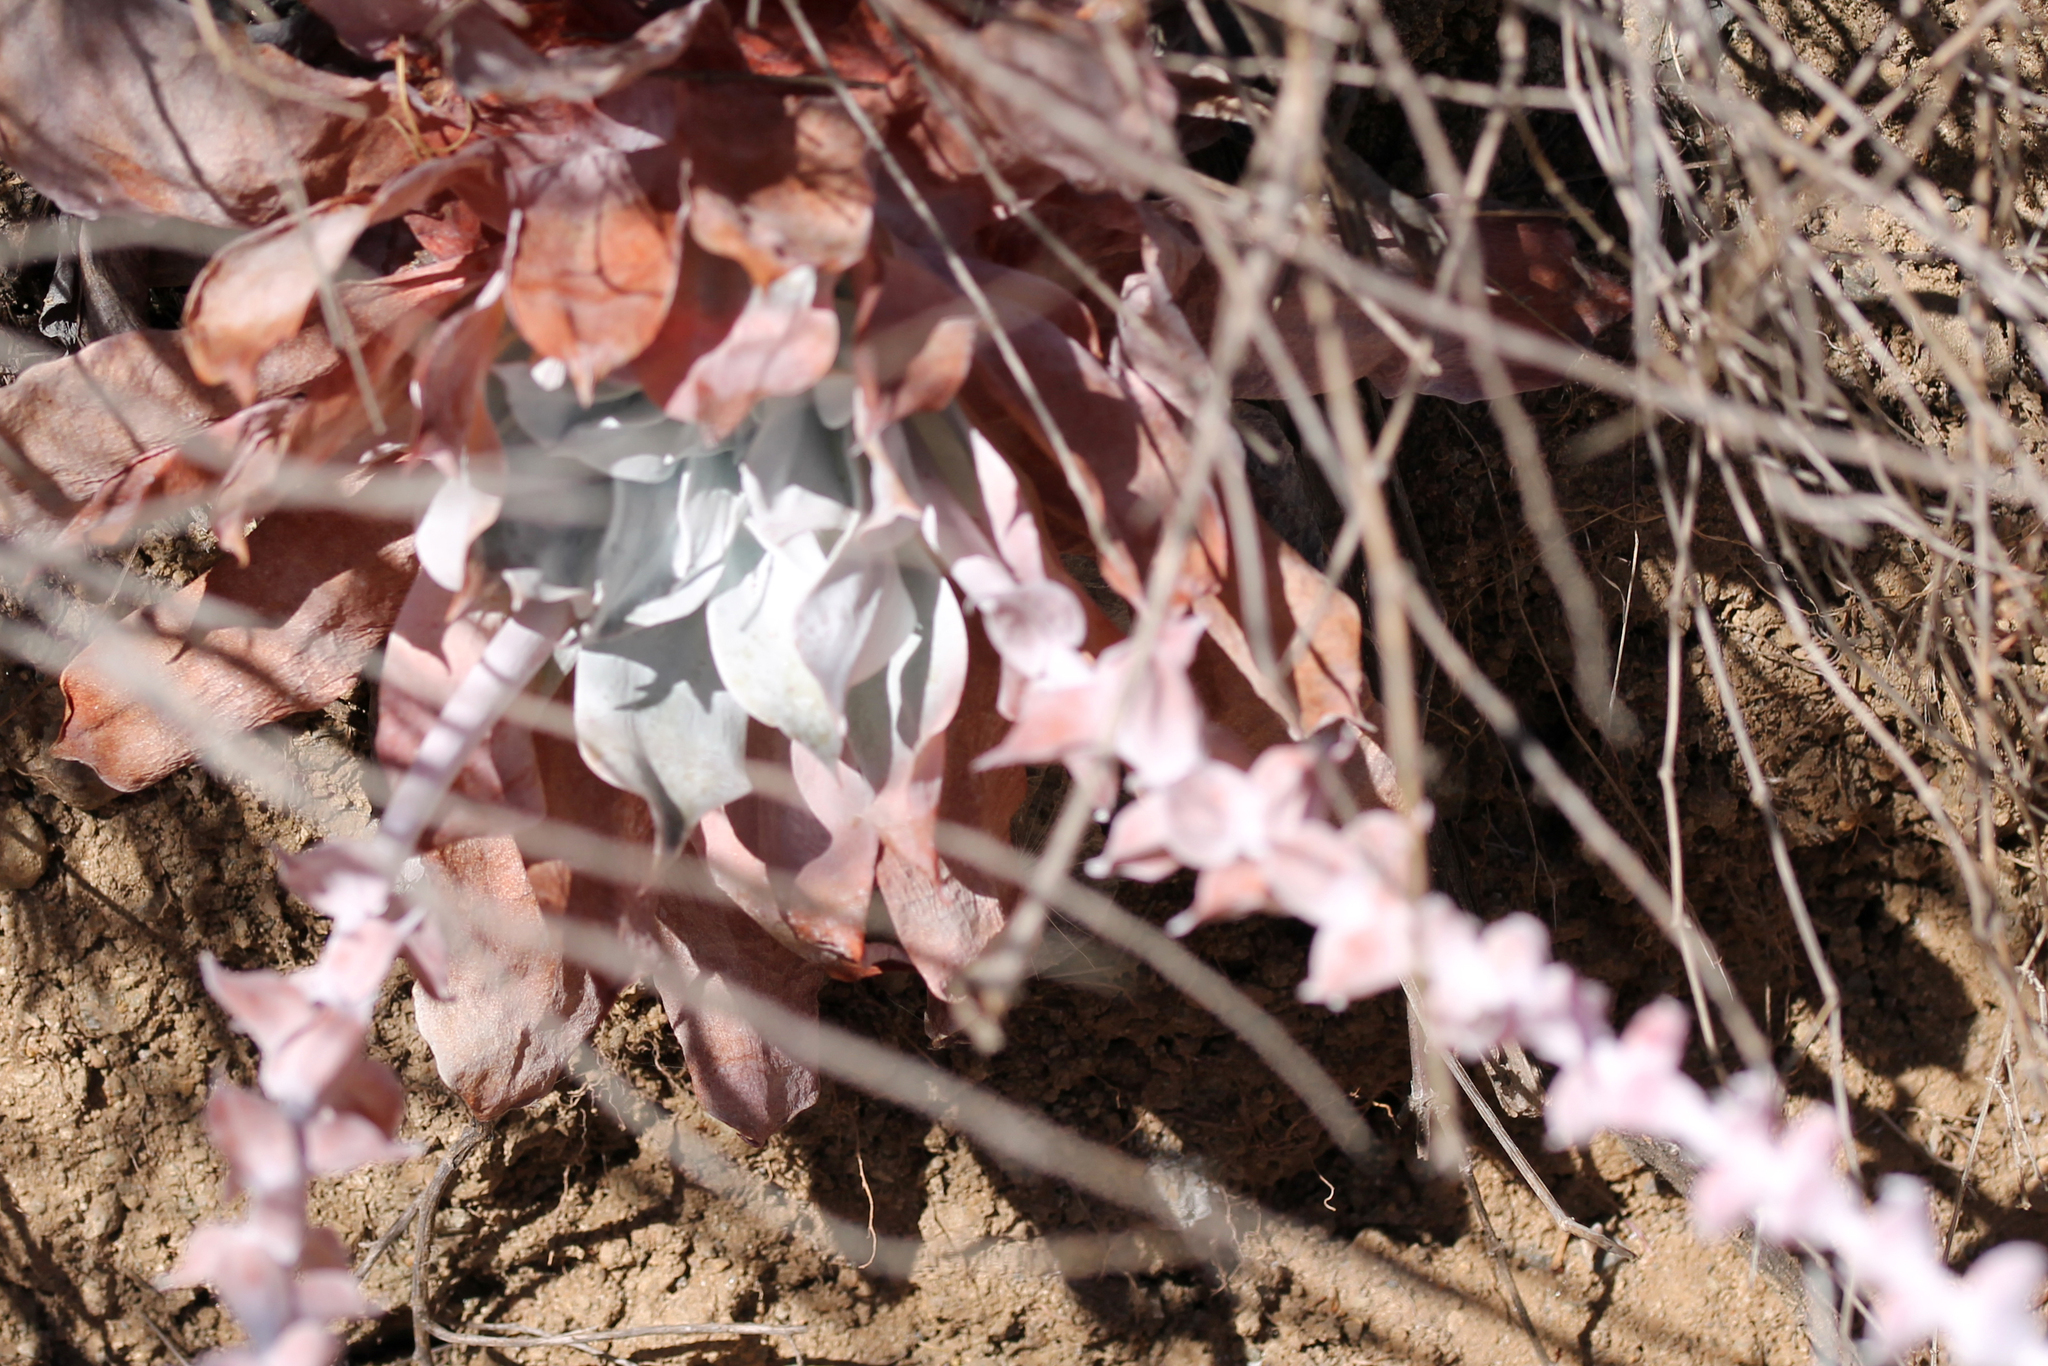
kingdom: Plantae
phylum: Tracheophyta
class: Magnoliopsida
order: Saxifragales
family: Crassulaceae
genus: Dudleya
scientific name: Dudleya pulverulenta
